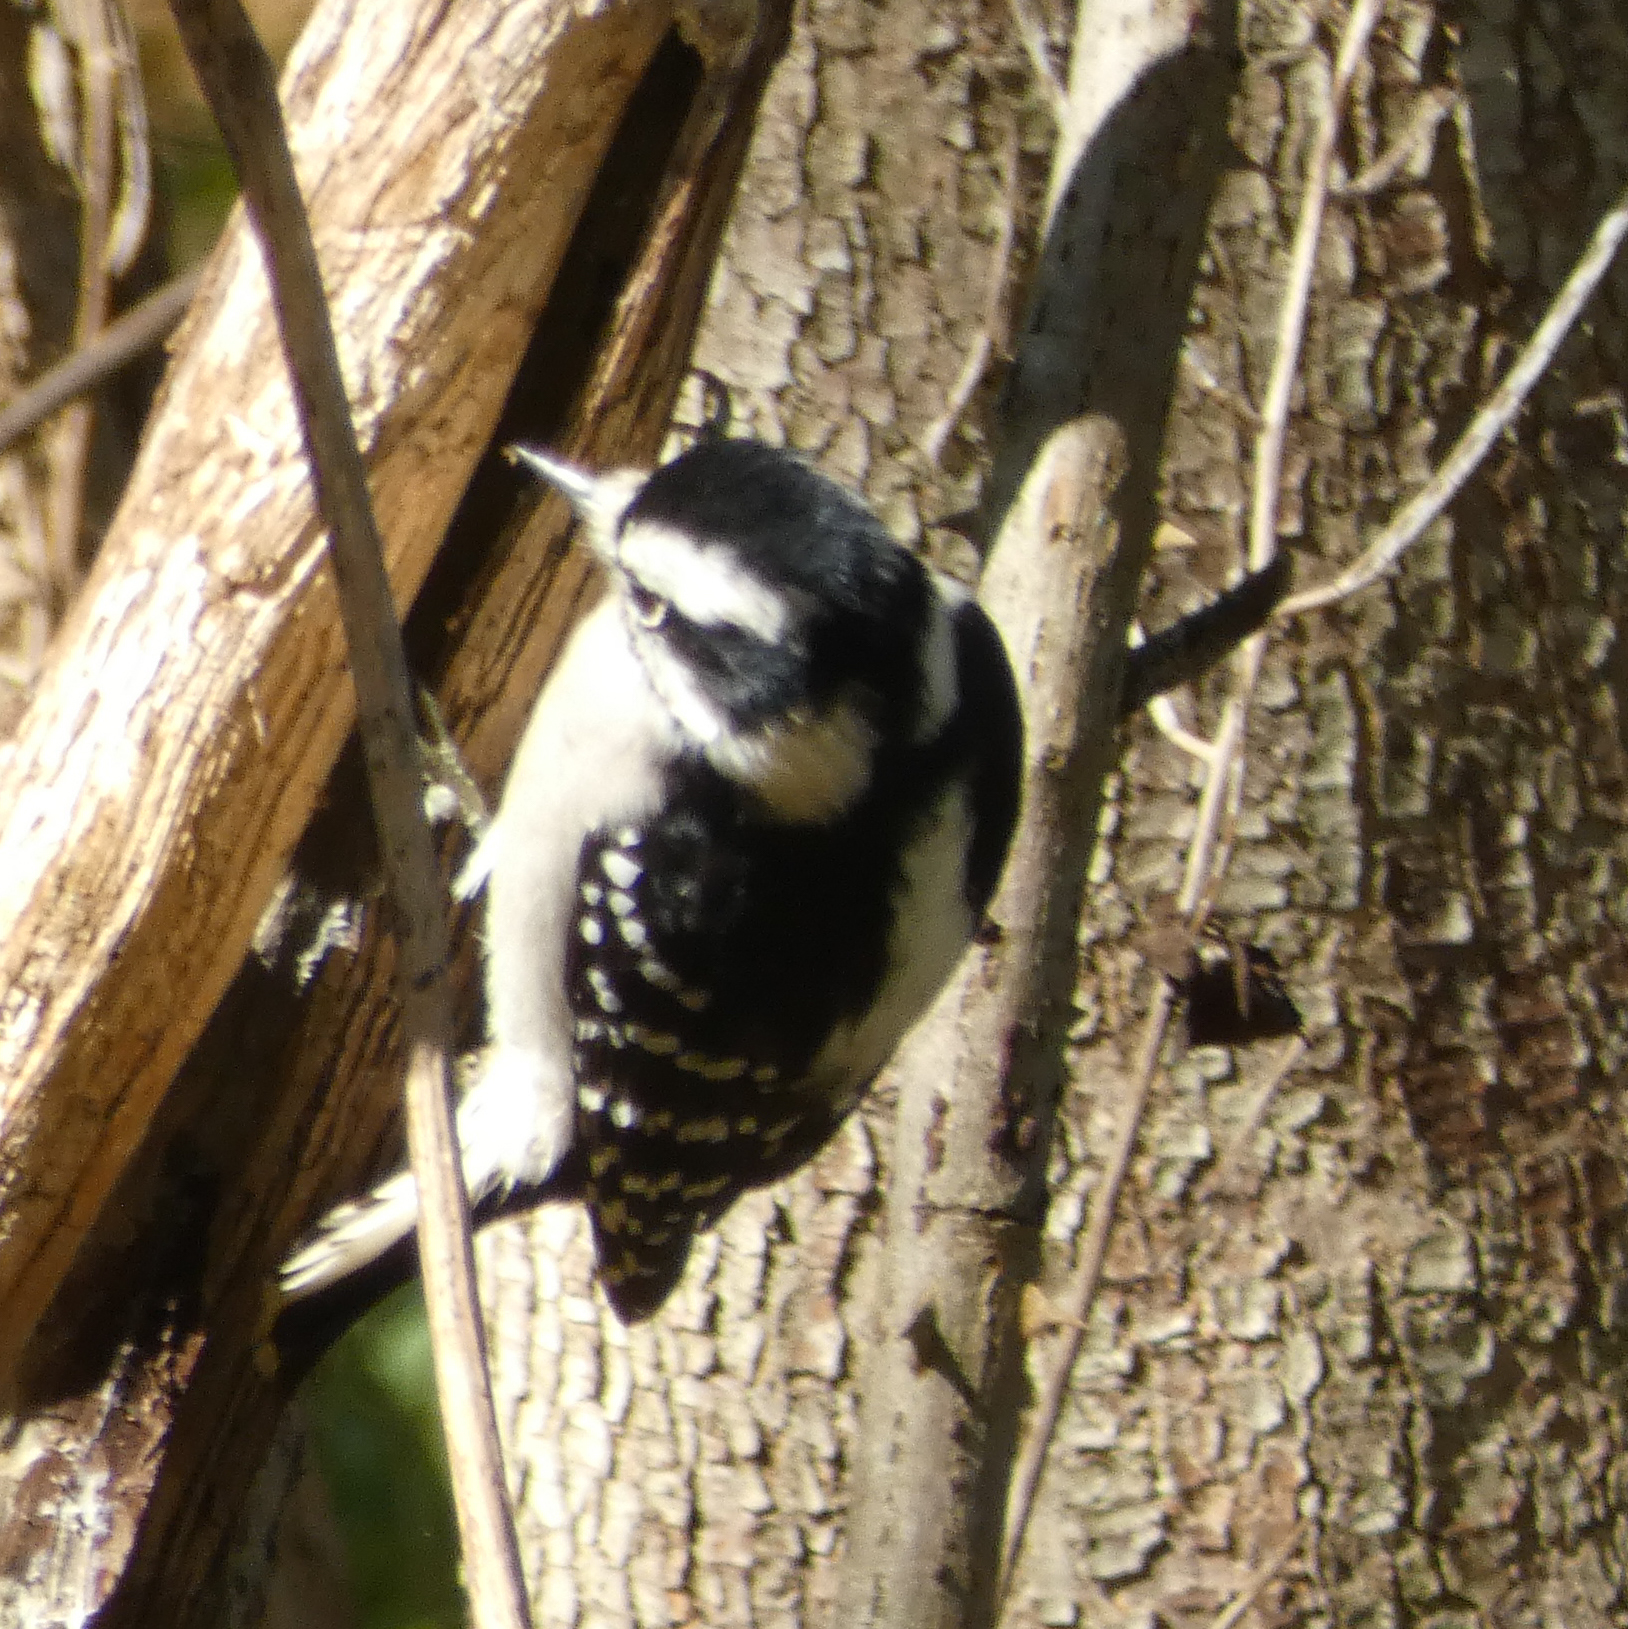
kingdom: Animalia
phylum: Chordata
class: Aves
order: Piciformes
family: Picidae
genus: Dryobates
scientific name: Dryobates pubescens
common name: Downy woodpecker
